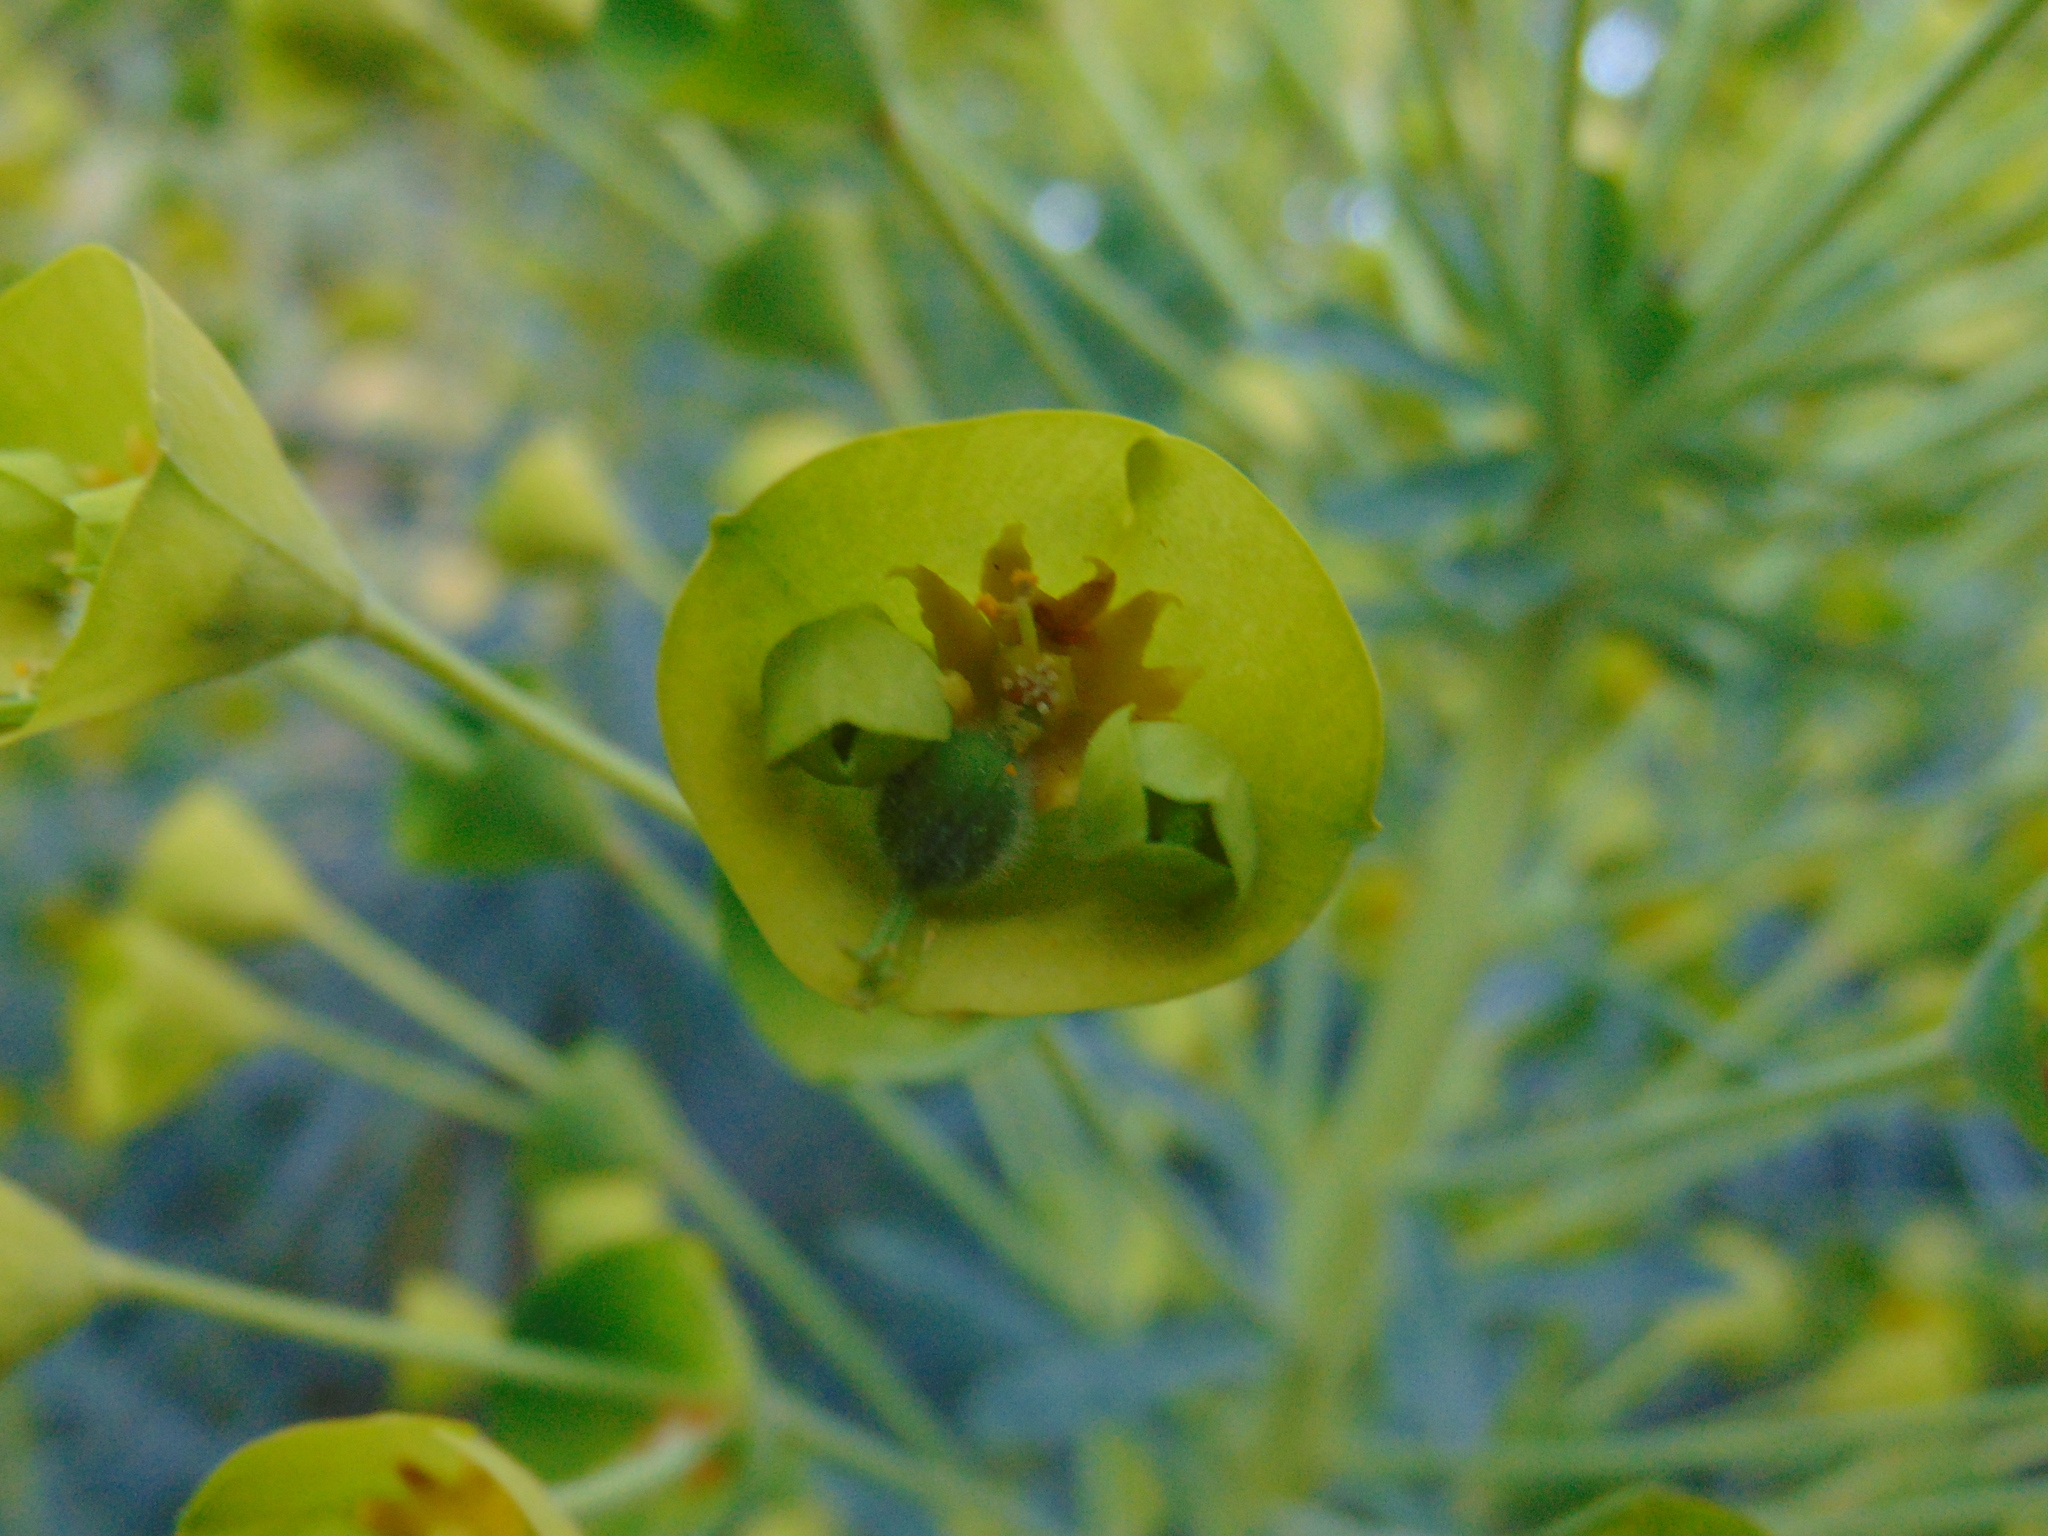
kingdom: Plantae
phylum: Tracheophyta
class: Magnoliopsida
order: Malpighiales
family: Euphorbiaceae
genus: Euphorbia
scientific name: Euphorbia characias
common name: Mediterranean spurge
